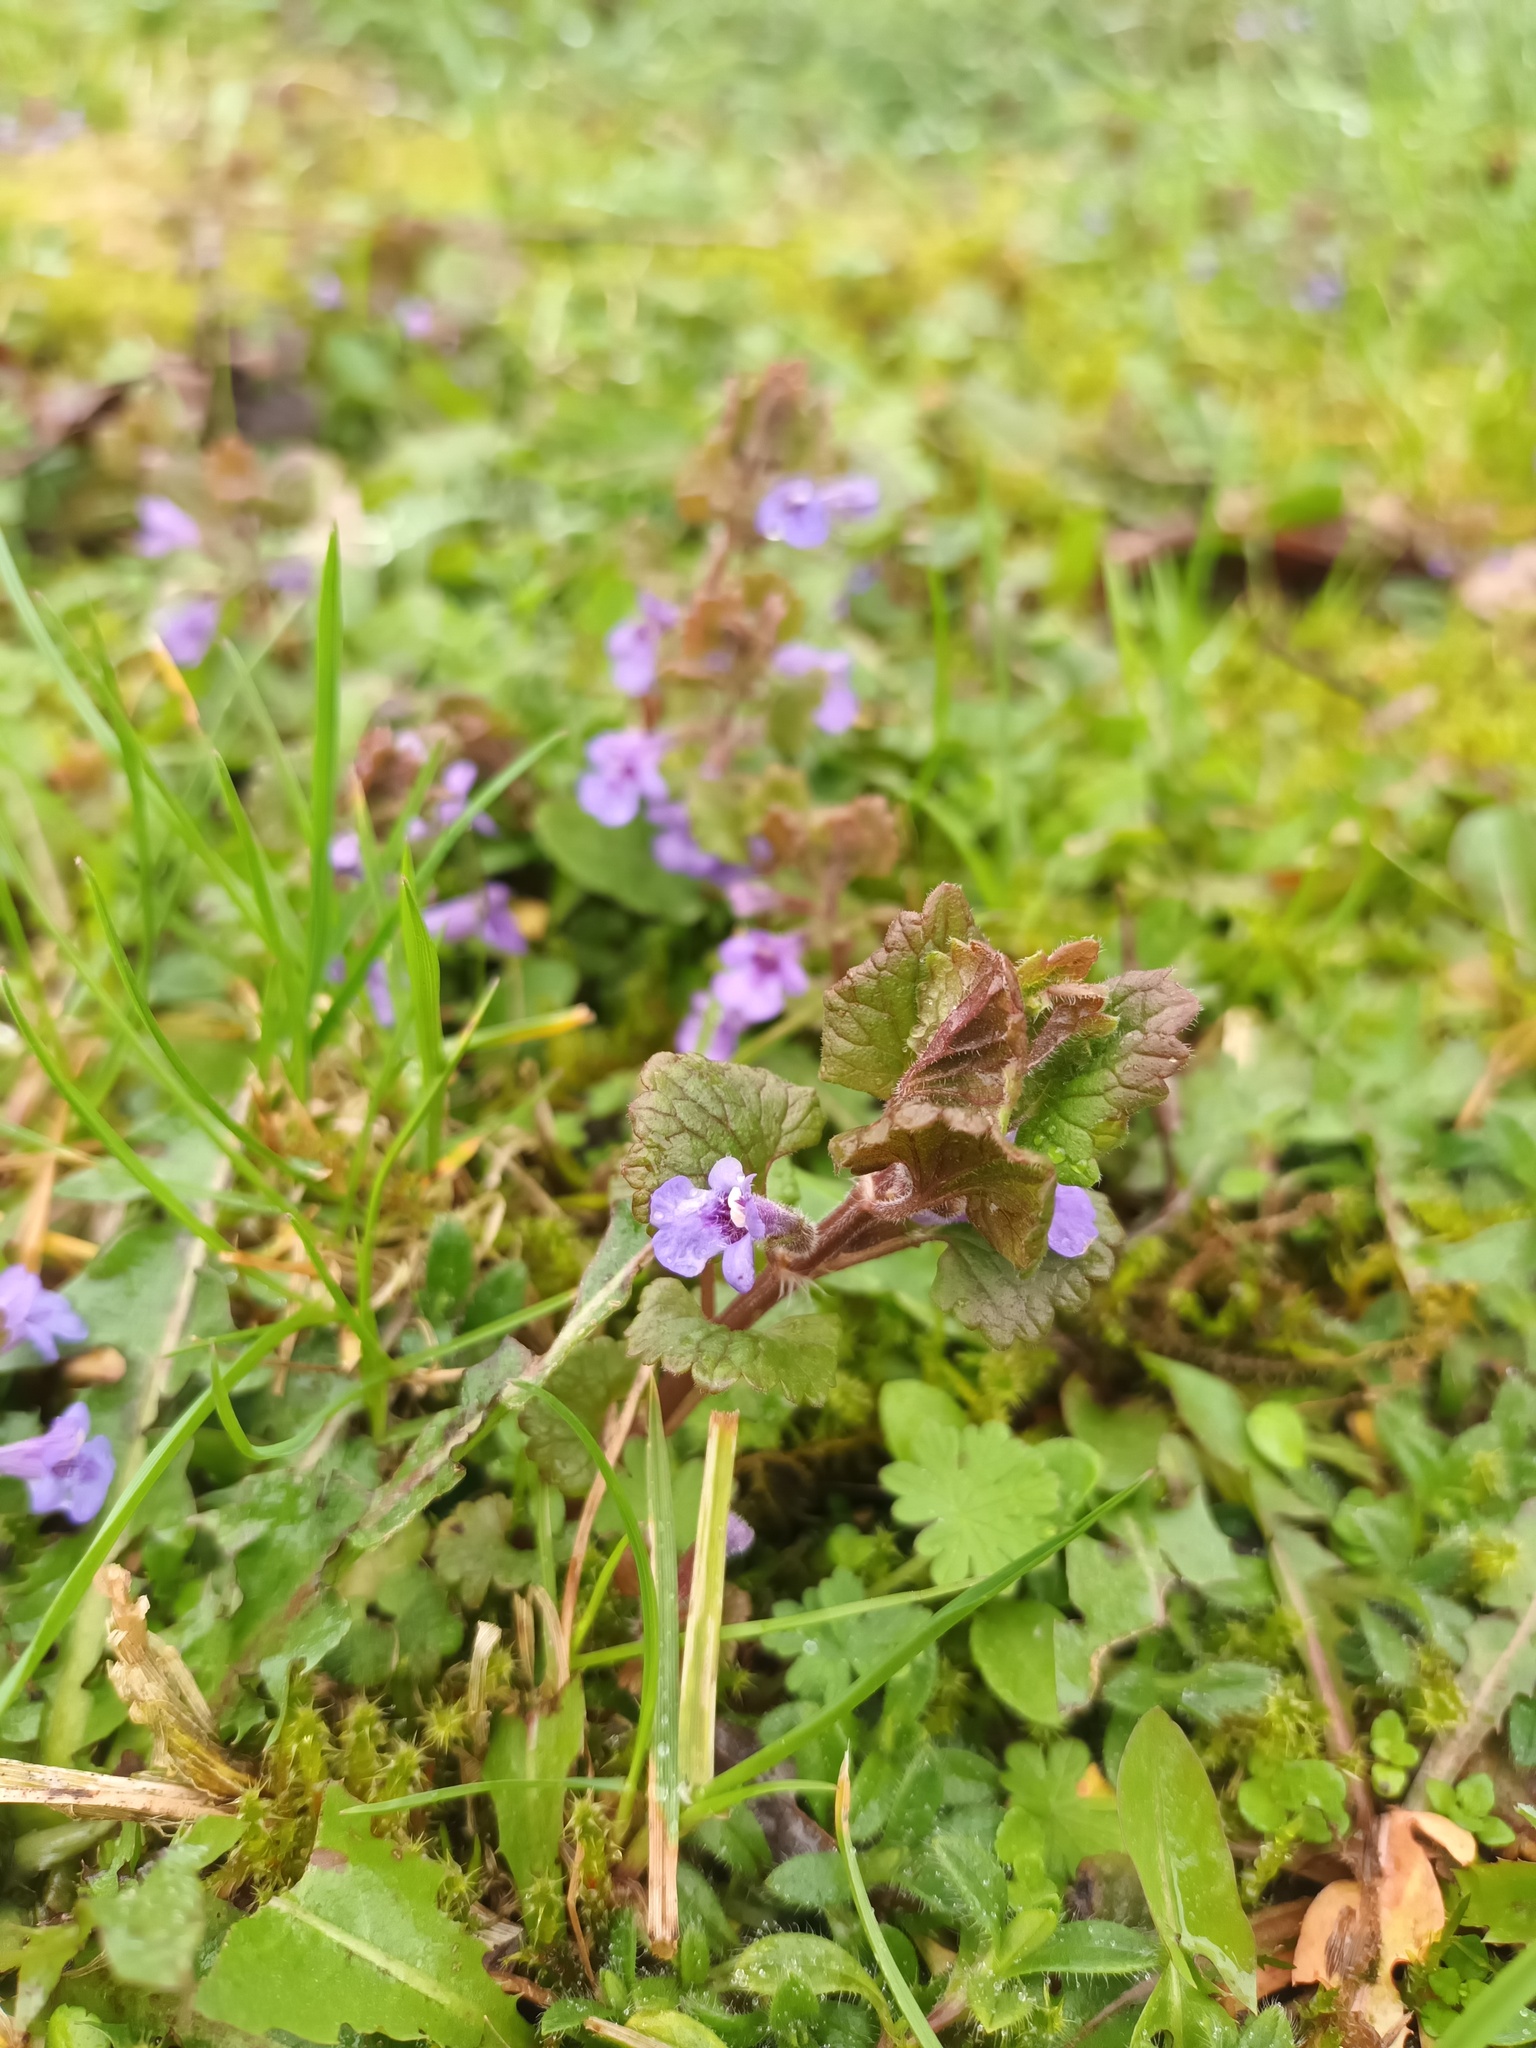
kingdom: Plantae
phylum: Tracheophyta
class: Magnoliopsida
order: Lamiales
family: Lamiaceae
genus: Glechoma
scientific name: Glechoma hederacea
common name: Ground ivy
